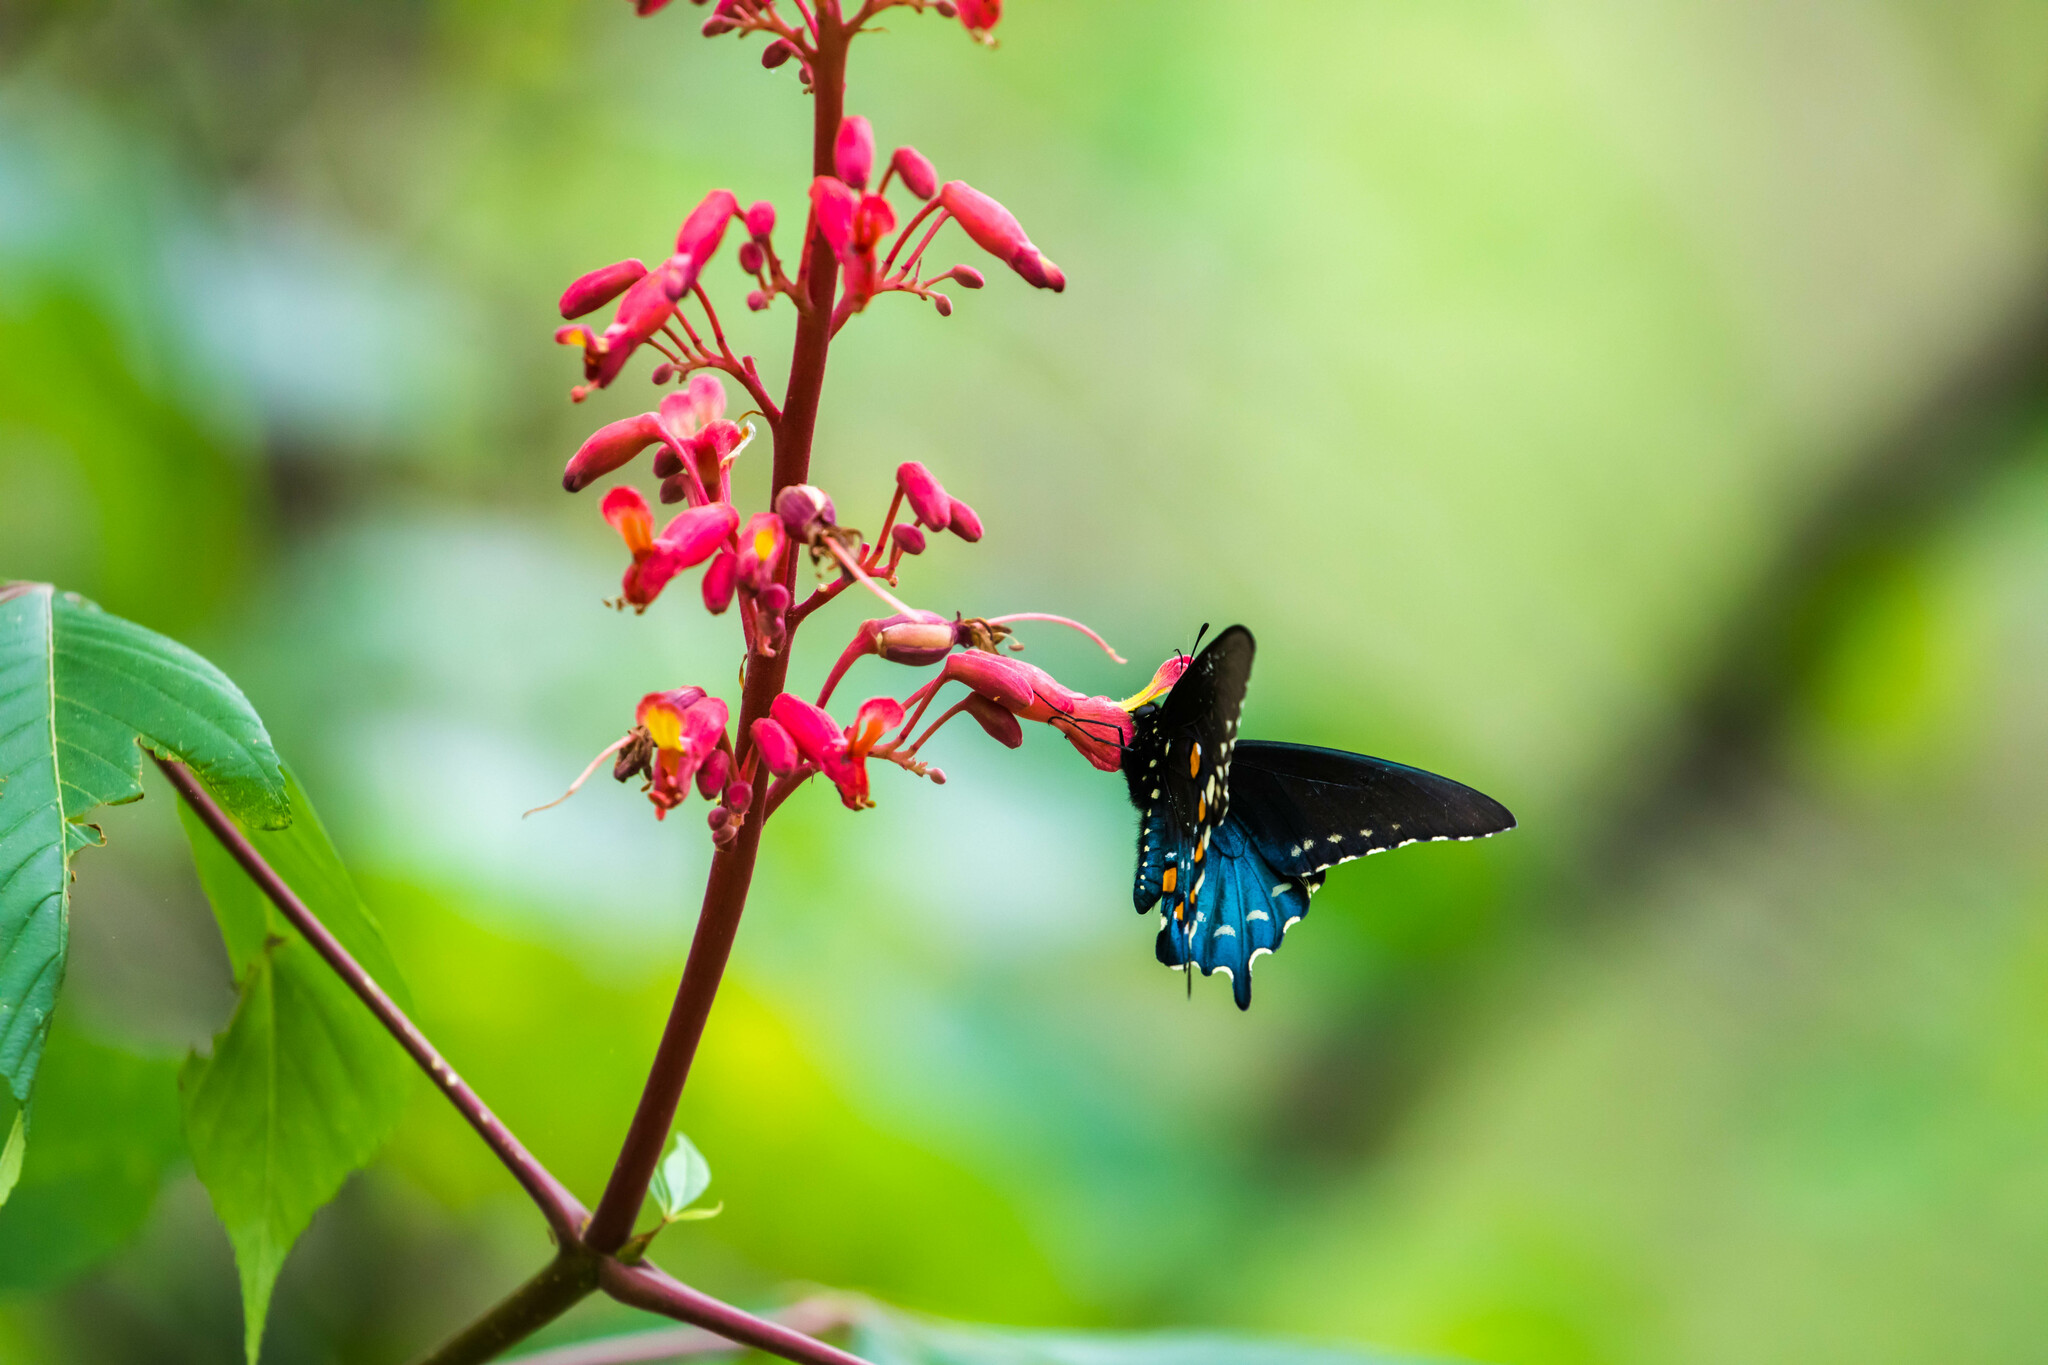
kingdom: Animalia
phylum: Arthropoda
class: Insecta
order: Lepidoptera
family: Papilionidae
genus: Battus
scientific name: Battus philenor
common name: Pipevine swallowtail
